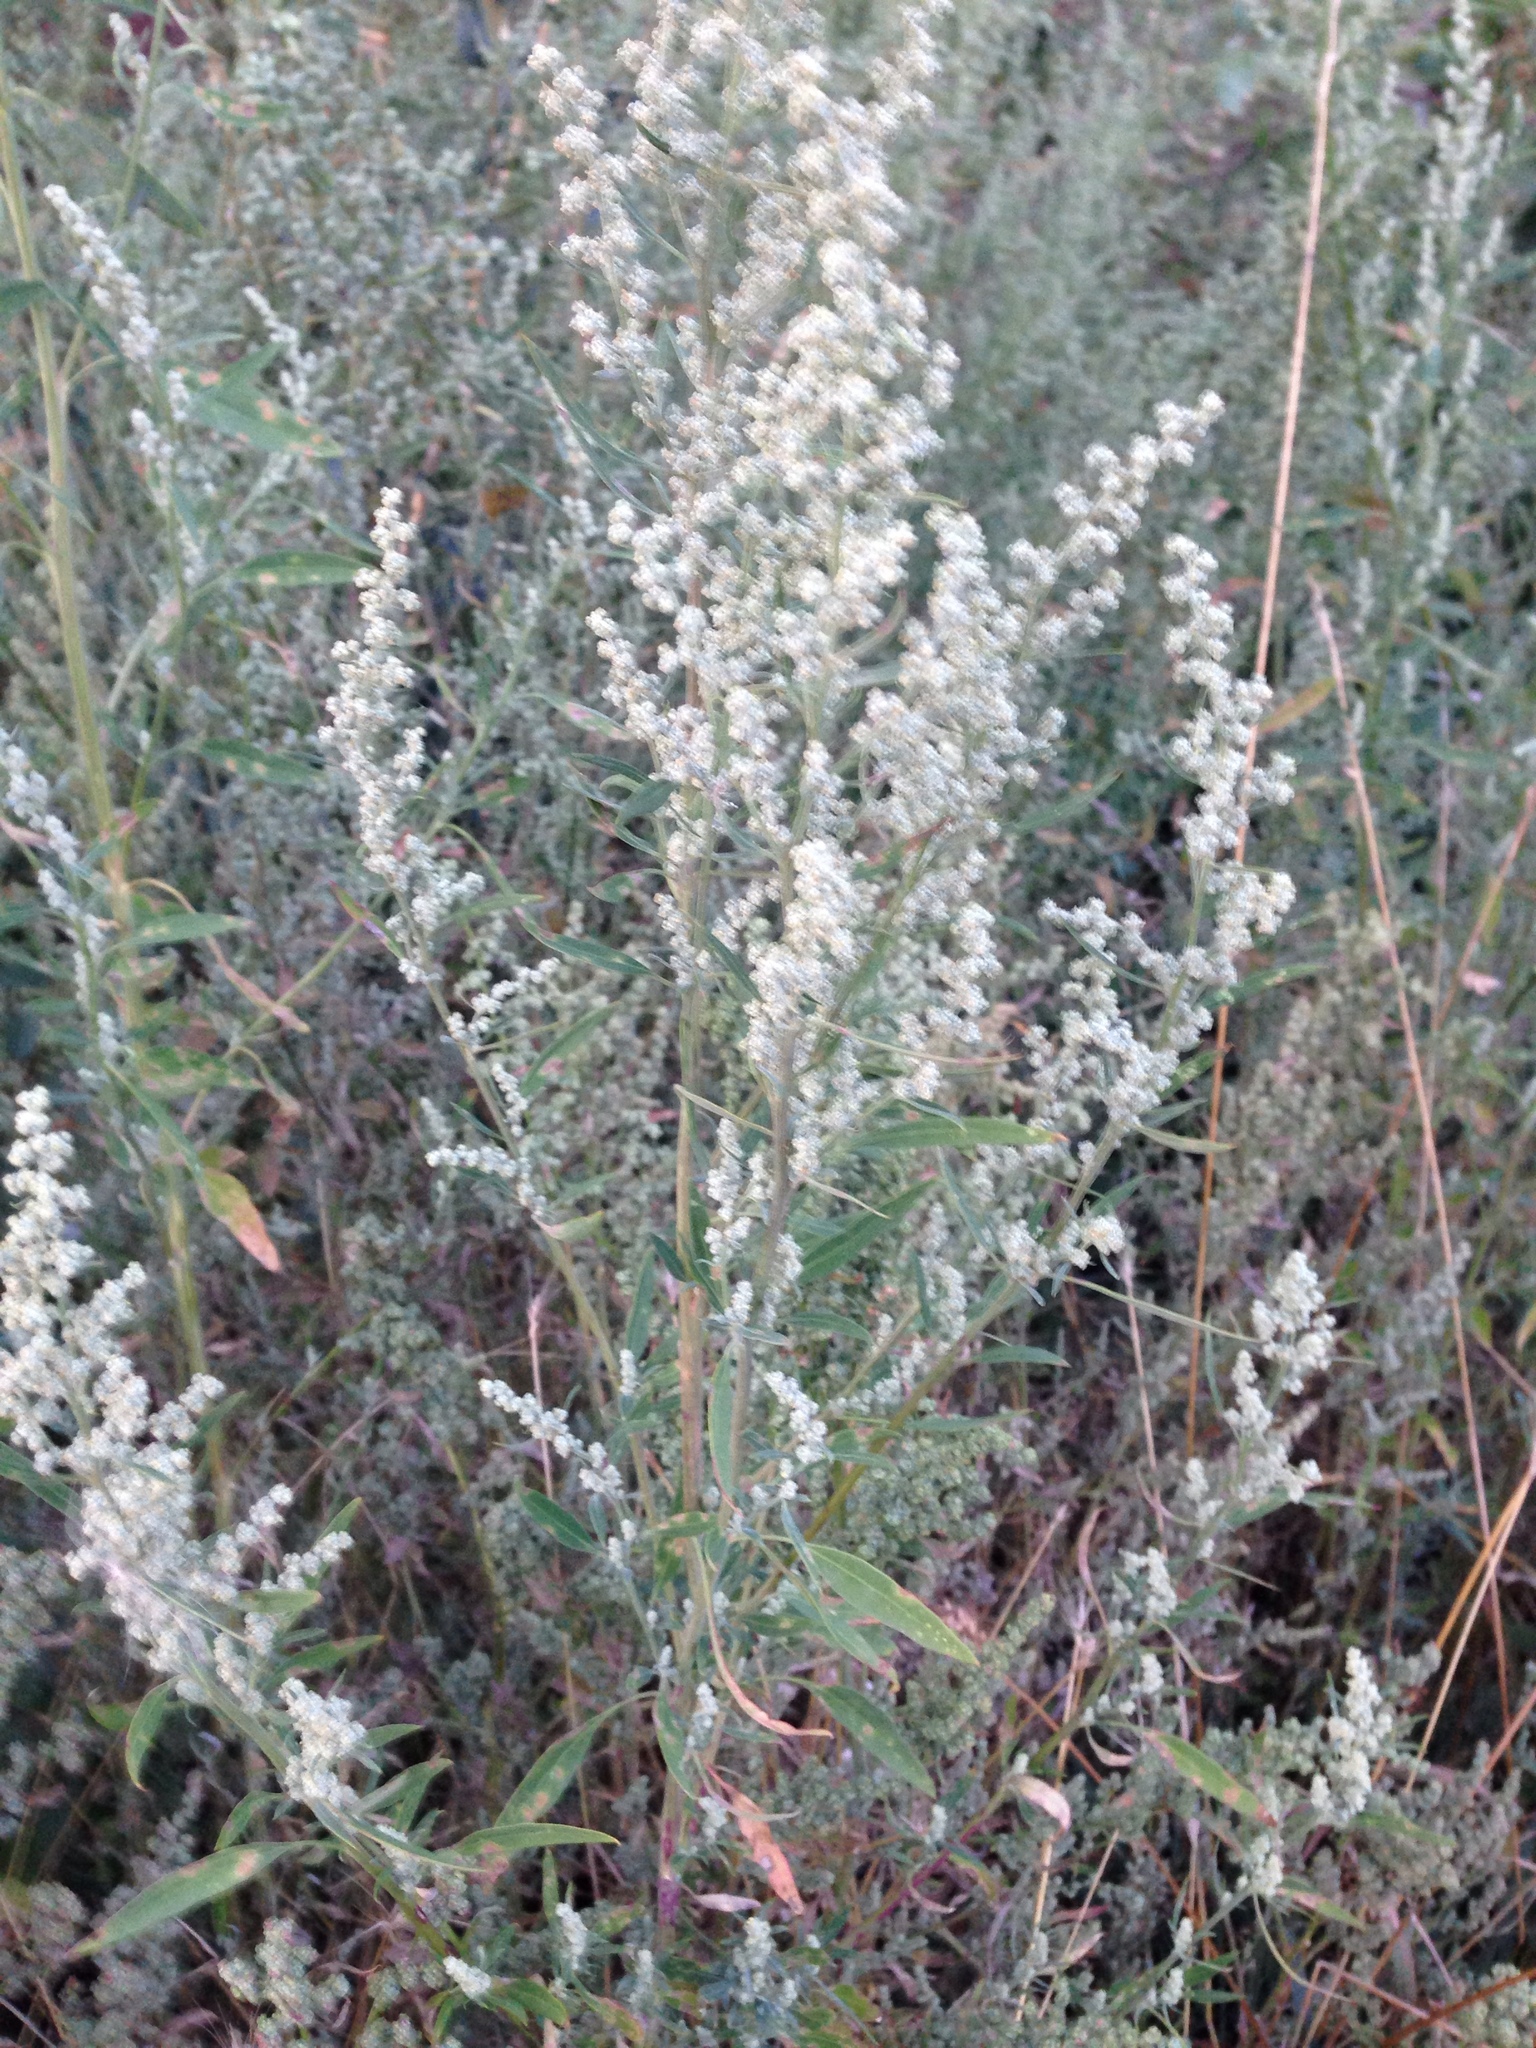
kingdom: Plantae
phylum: Tracheophyta
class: Magnoliopsida
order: Caryophyllales
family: Amaranthaceae
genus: Chenopodium
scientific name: Chenopodium album
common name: Fat-hen
